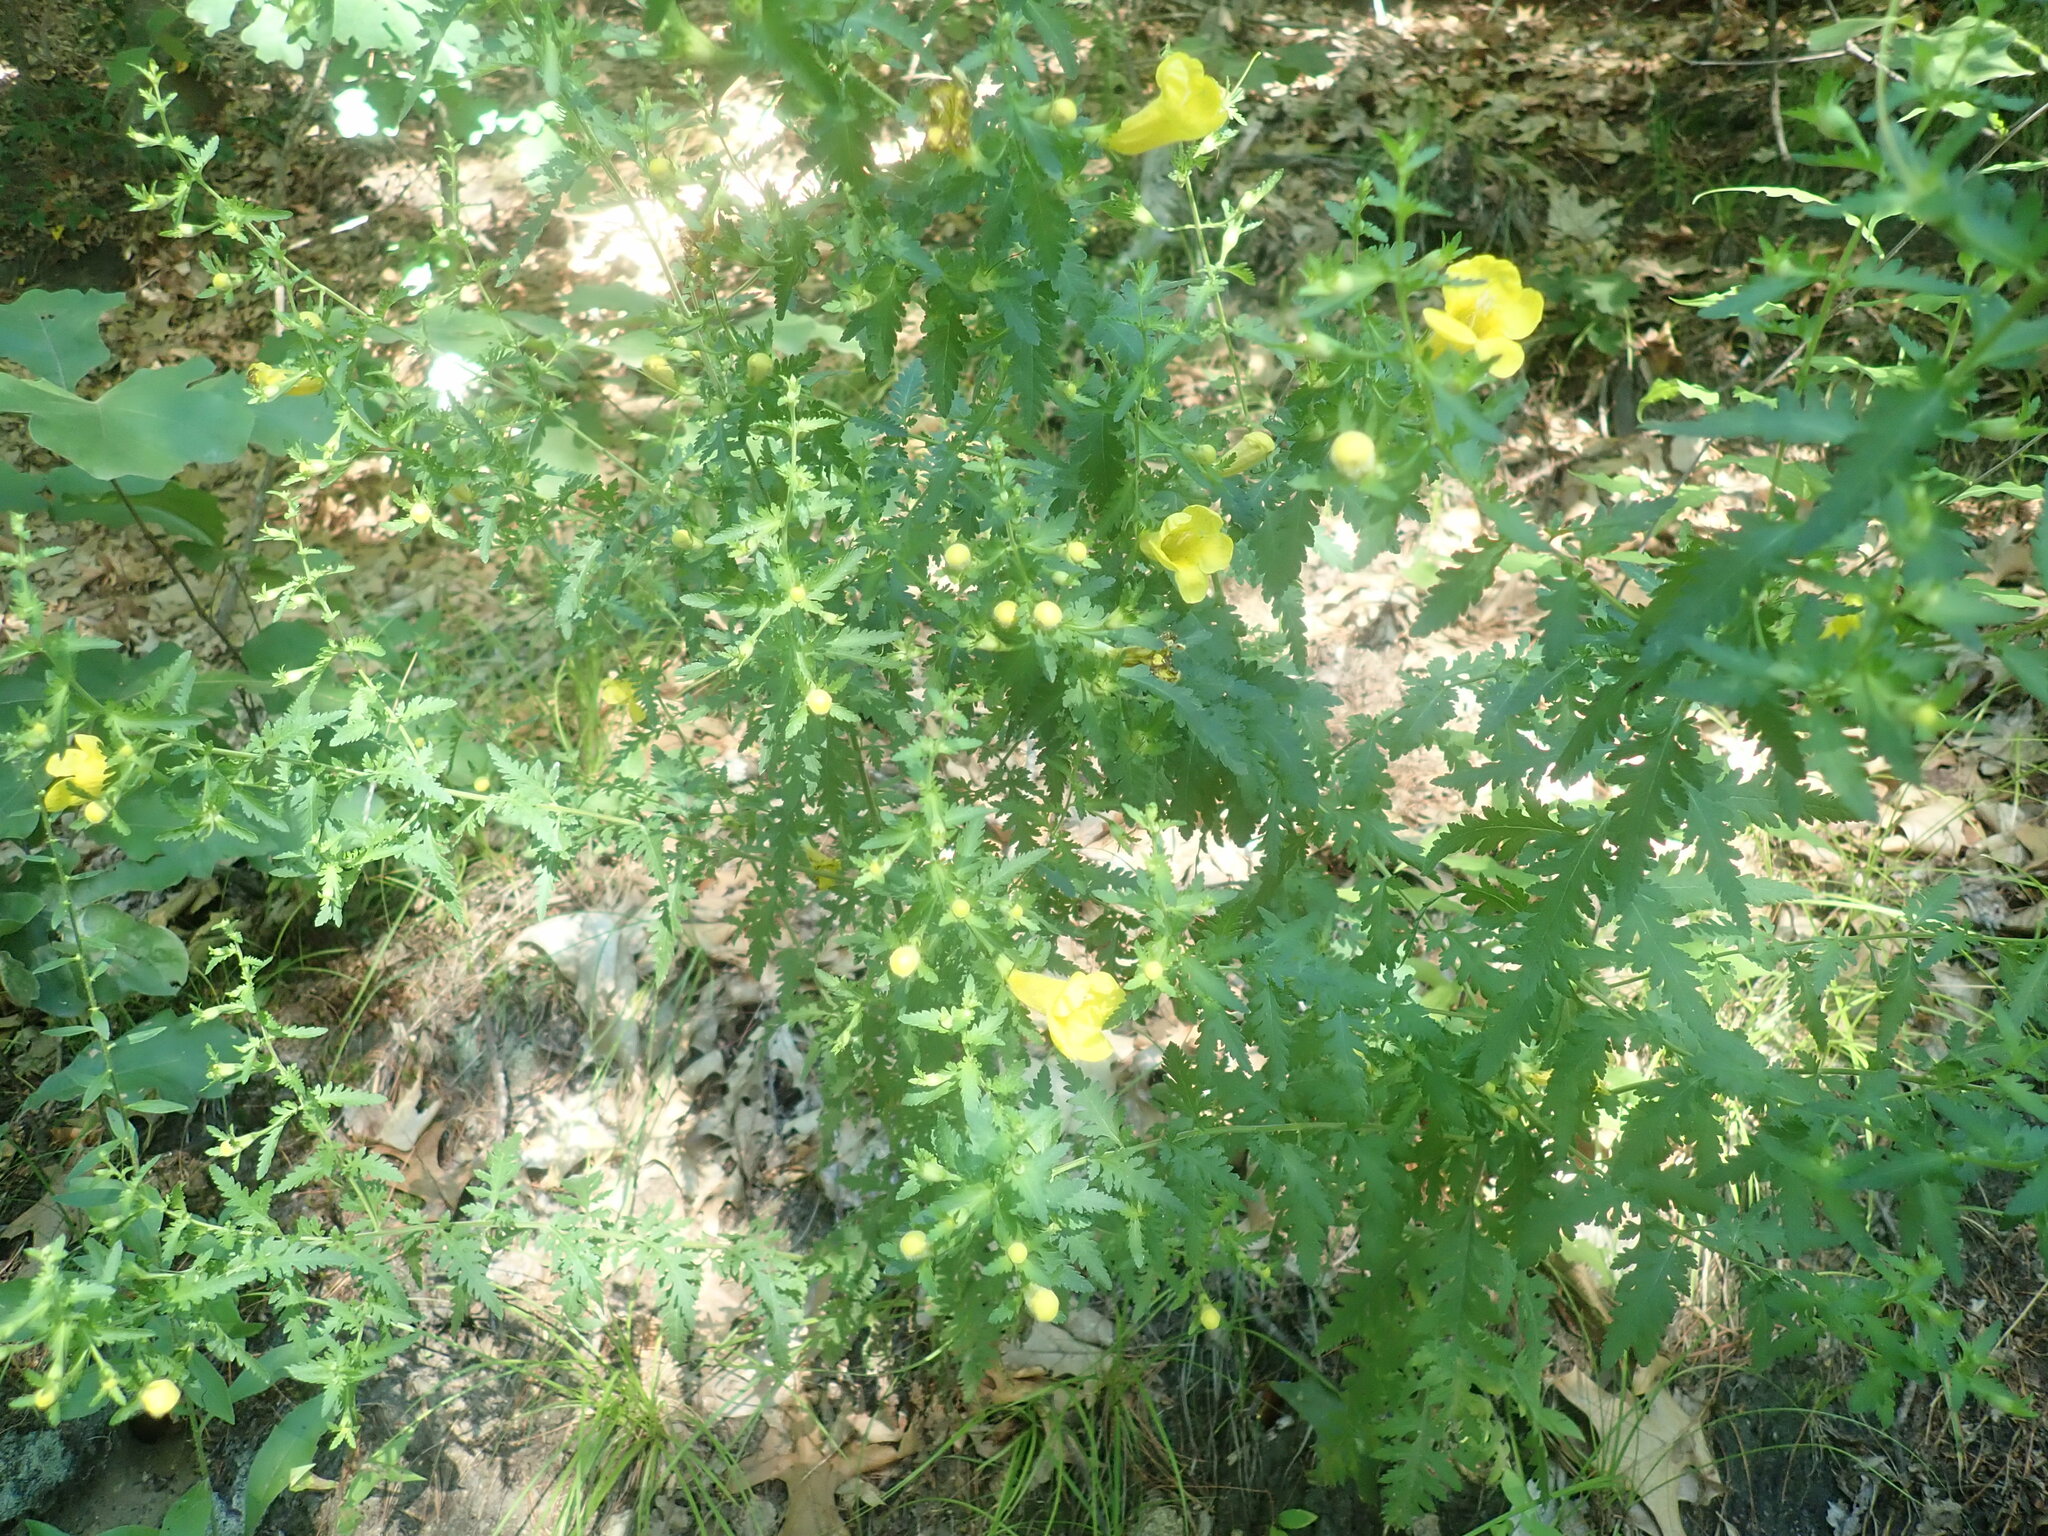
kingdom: Plantae
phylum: Tracheophyta
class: Magnoliopsida
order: Lamiales
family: Orobanchaceae
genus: Aureolaria
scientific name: Aureolaria pedicularia
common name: Annual false foxglove
